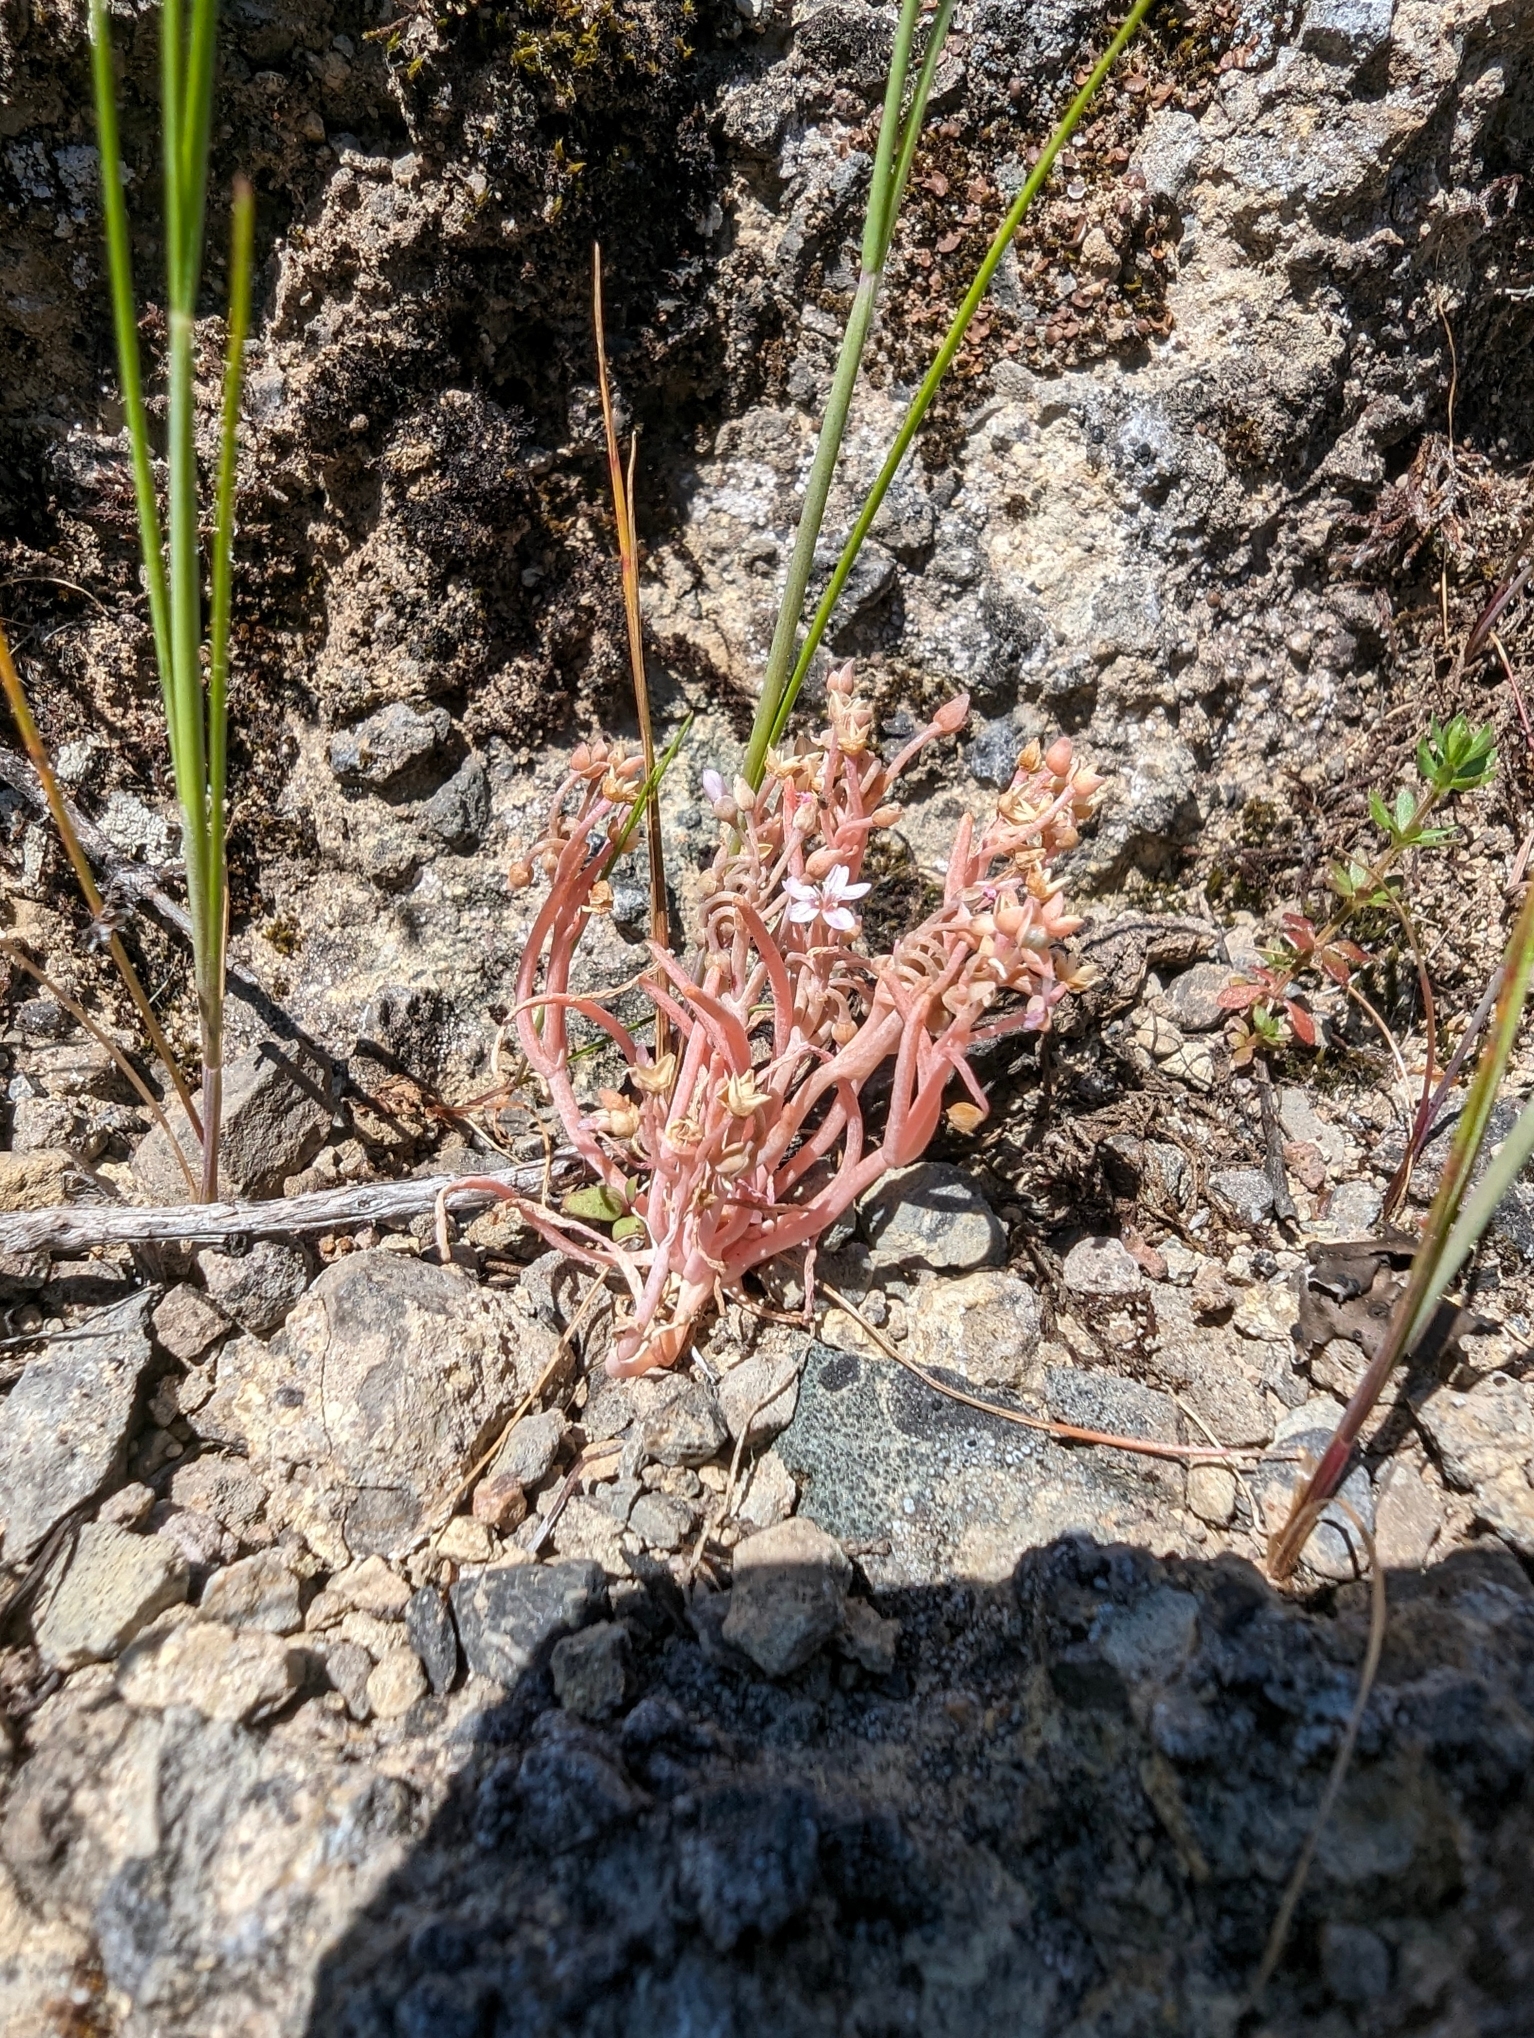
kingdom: Plantae
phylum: Tracheophyta
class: Magnoliopsida
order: Caryophyllales
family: Montiaceae
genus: Claytonia
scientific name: Claytonia exigua
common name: Pale spring beauty
